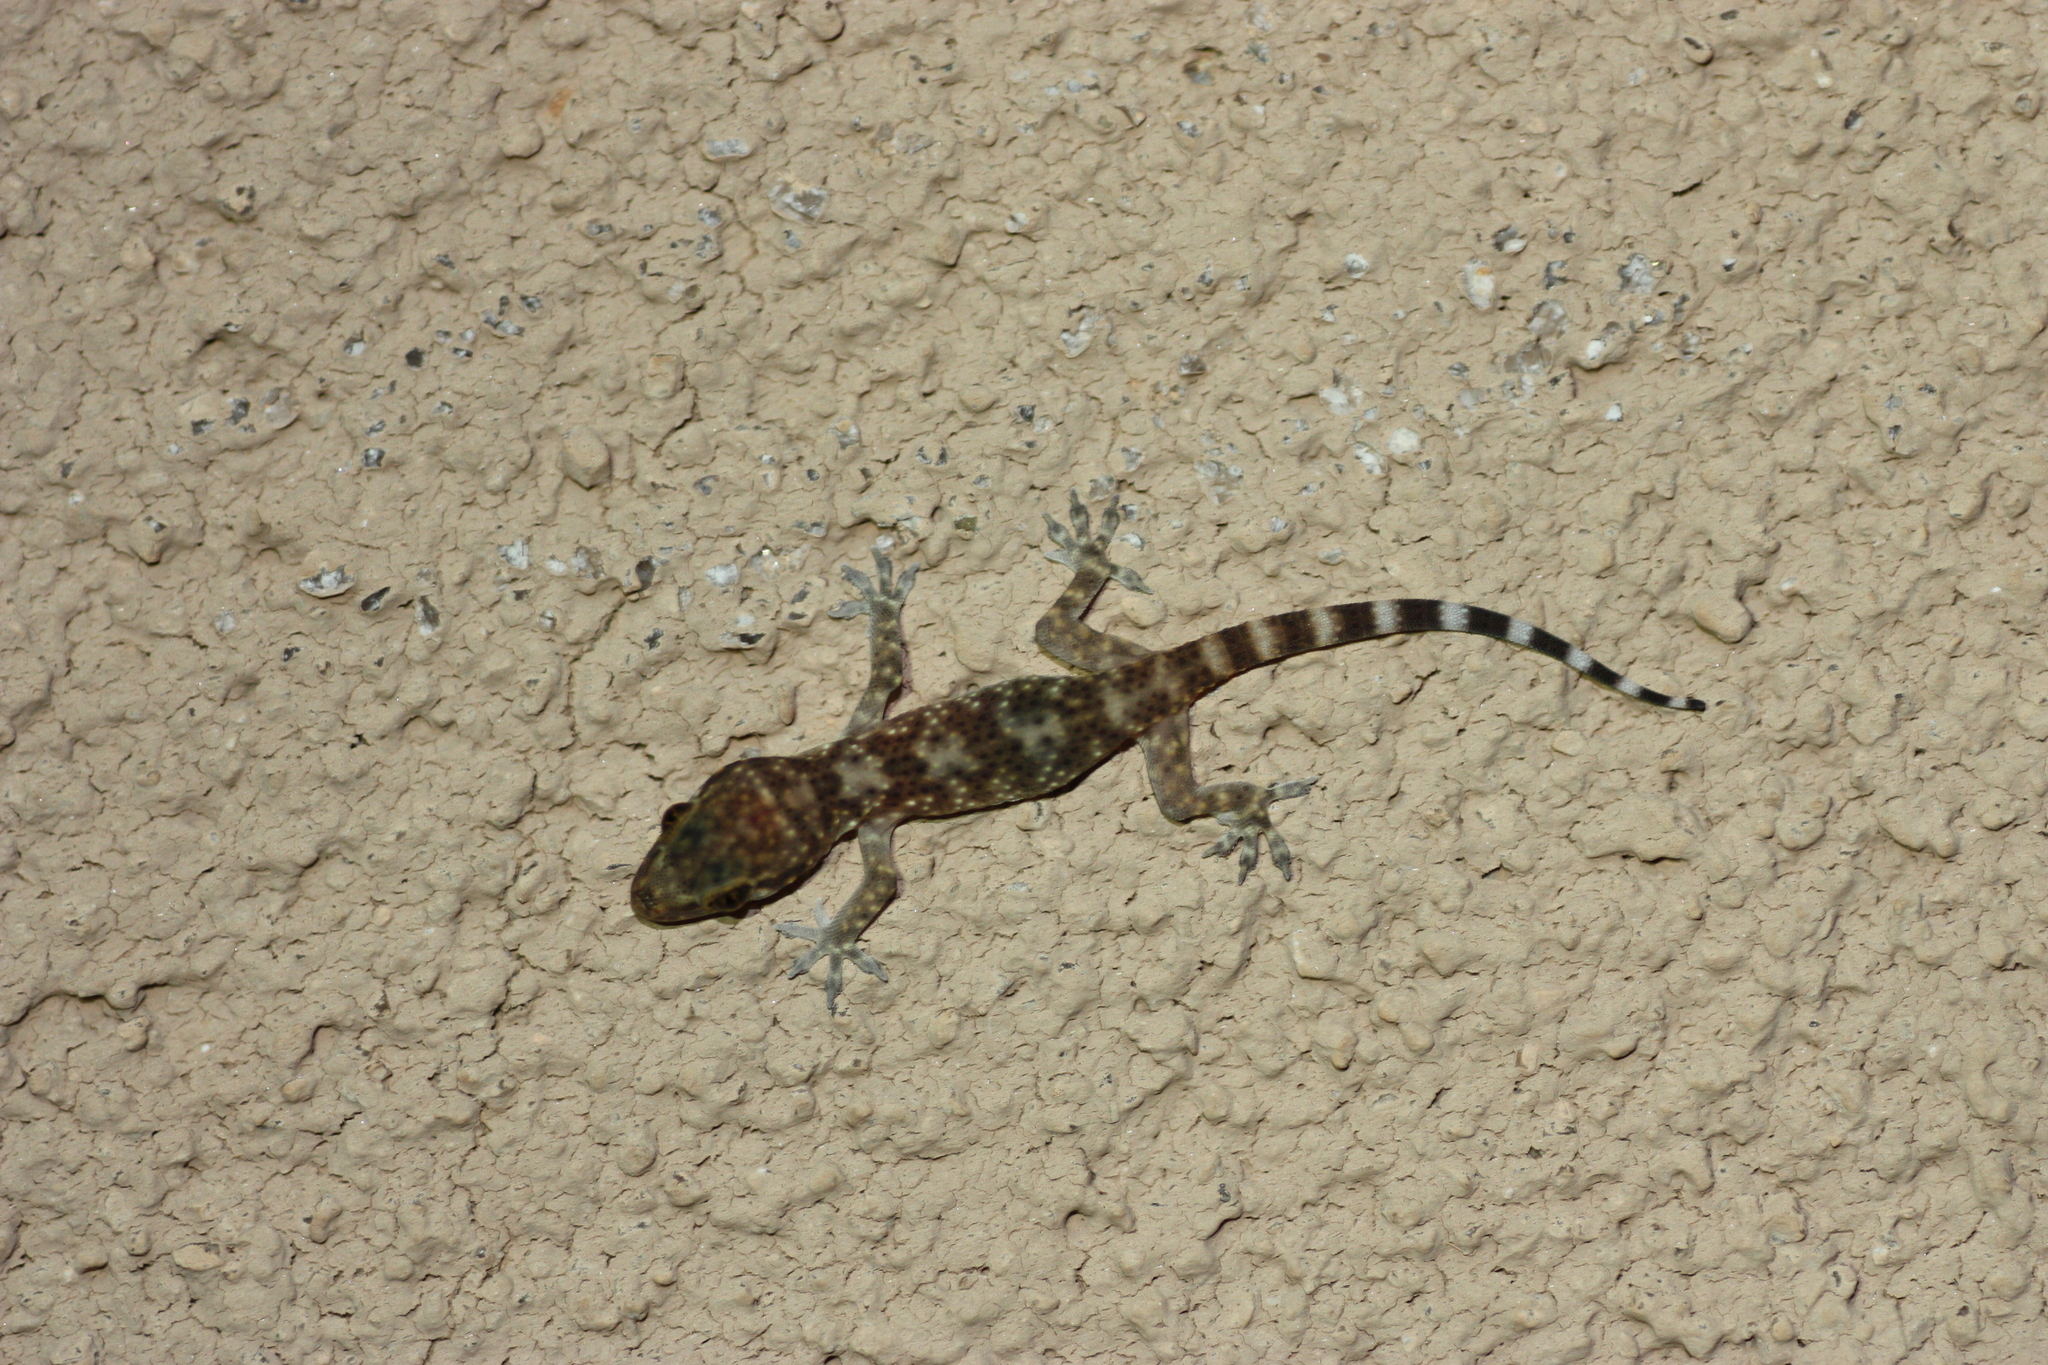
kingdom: Animalia
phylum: Chordata
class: Squamata
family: Gekkonidae
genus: Hemidactylus
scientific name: Hemidactylus turcicus
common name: Turkish gecko
